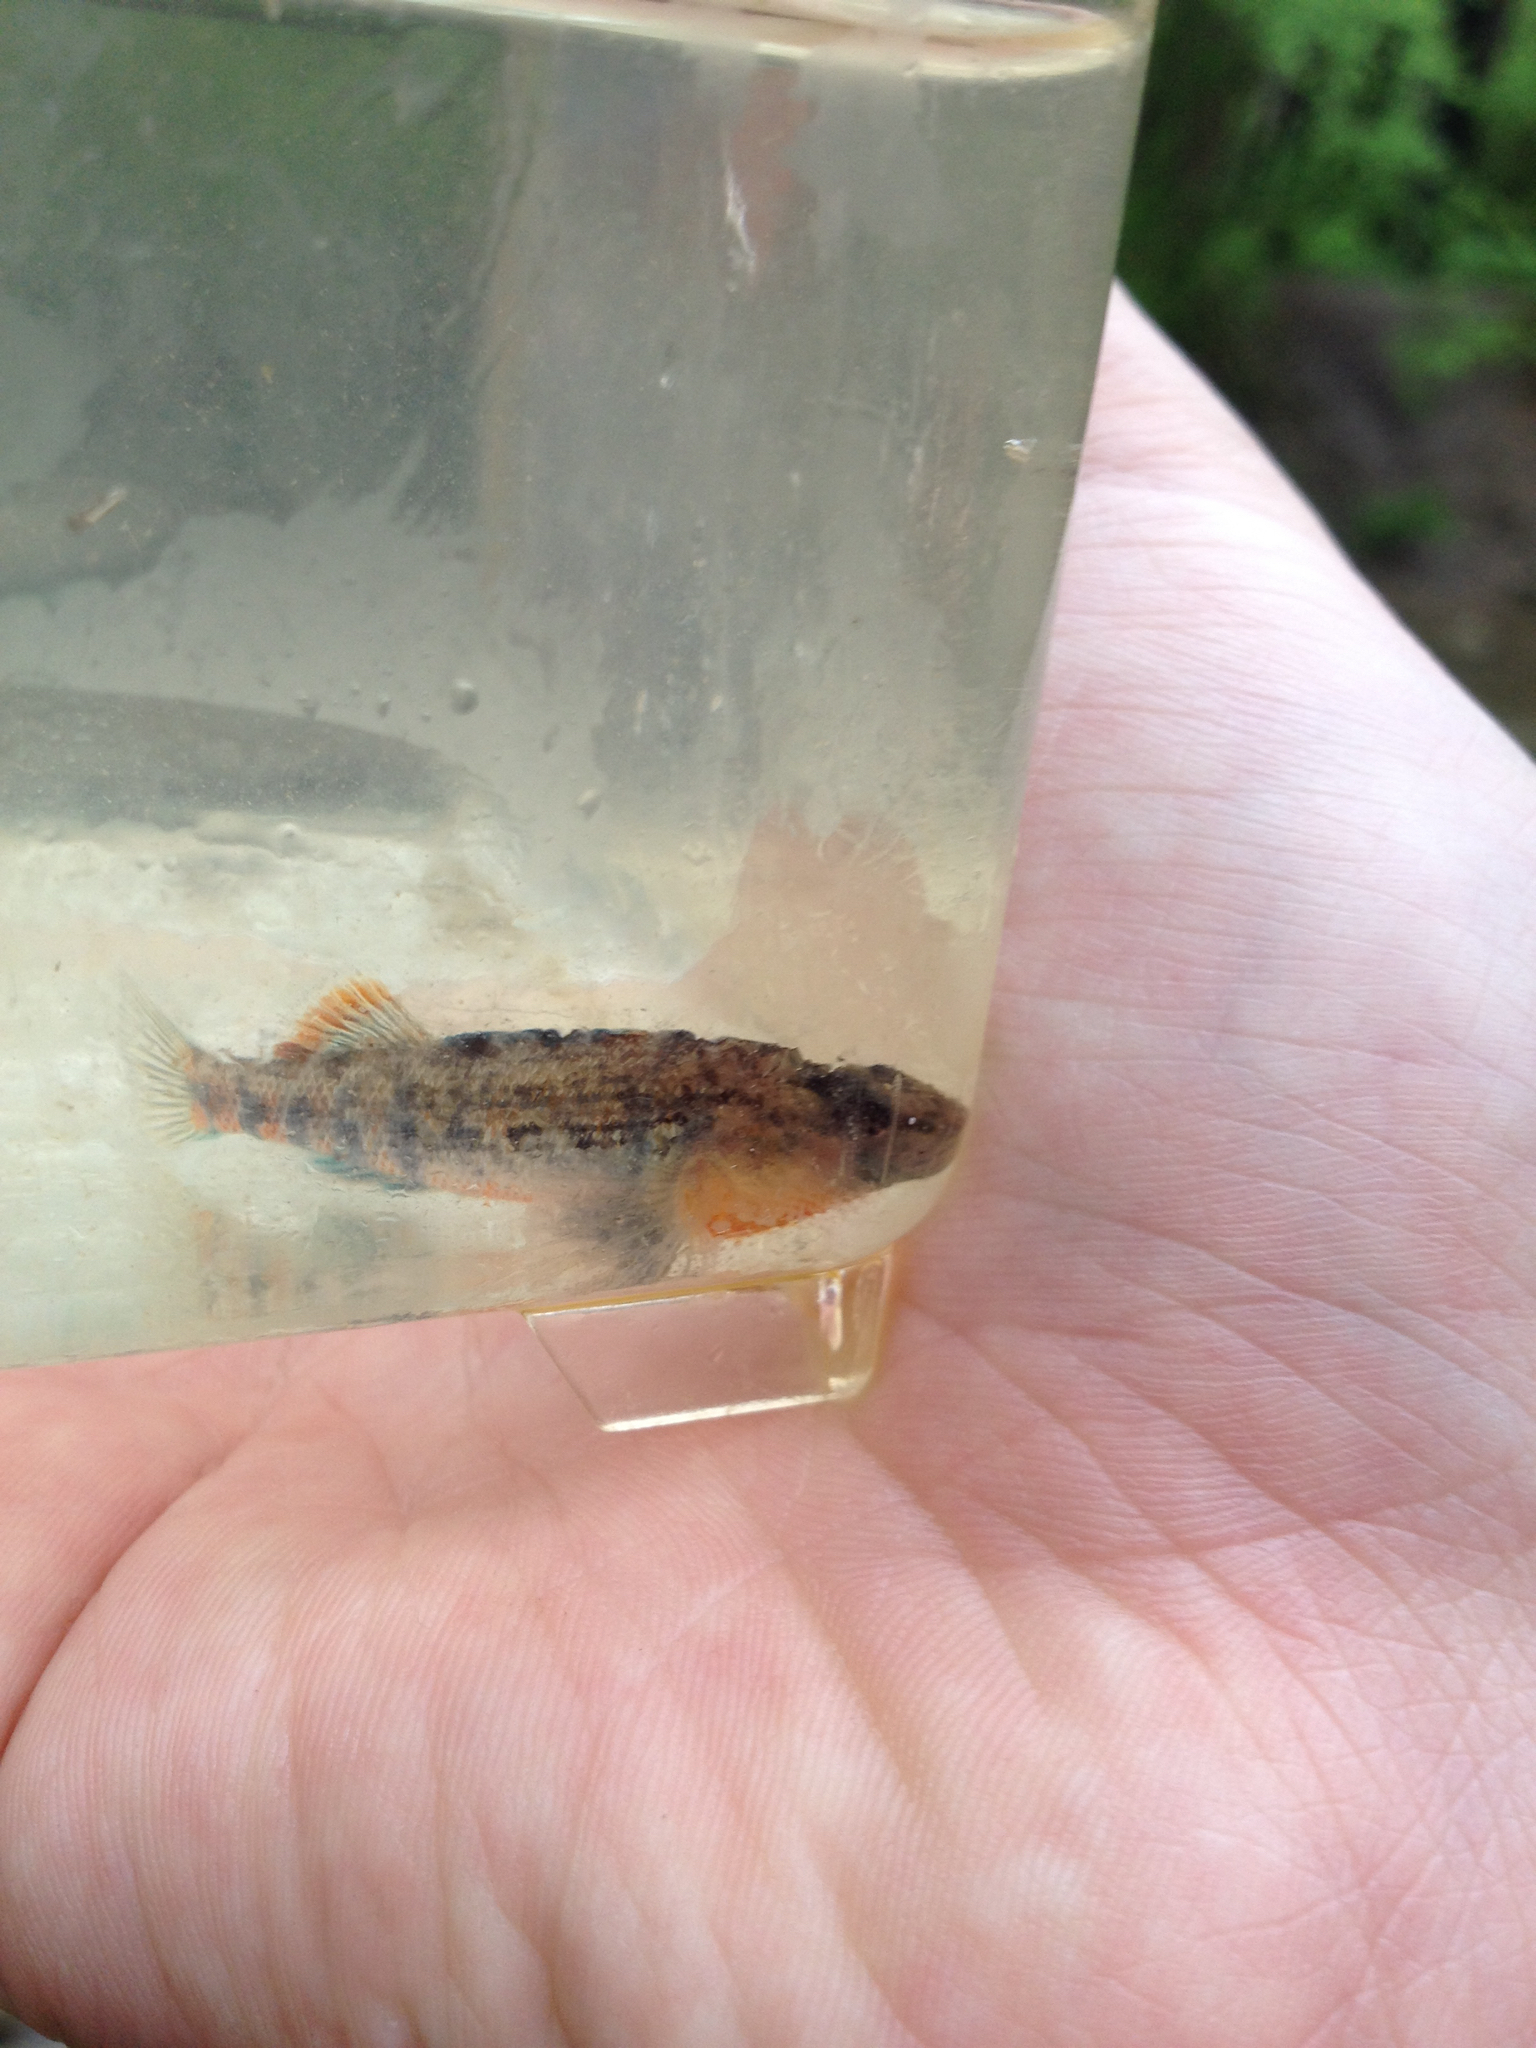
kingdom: Animalia
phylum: Chordata
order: Perciformes
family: Percidae
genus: Etheostoma
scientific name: Etheostoma spectabile
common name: Orangethroat darter
